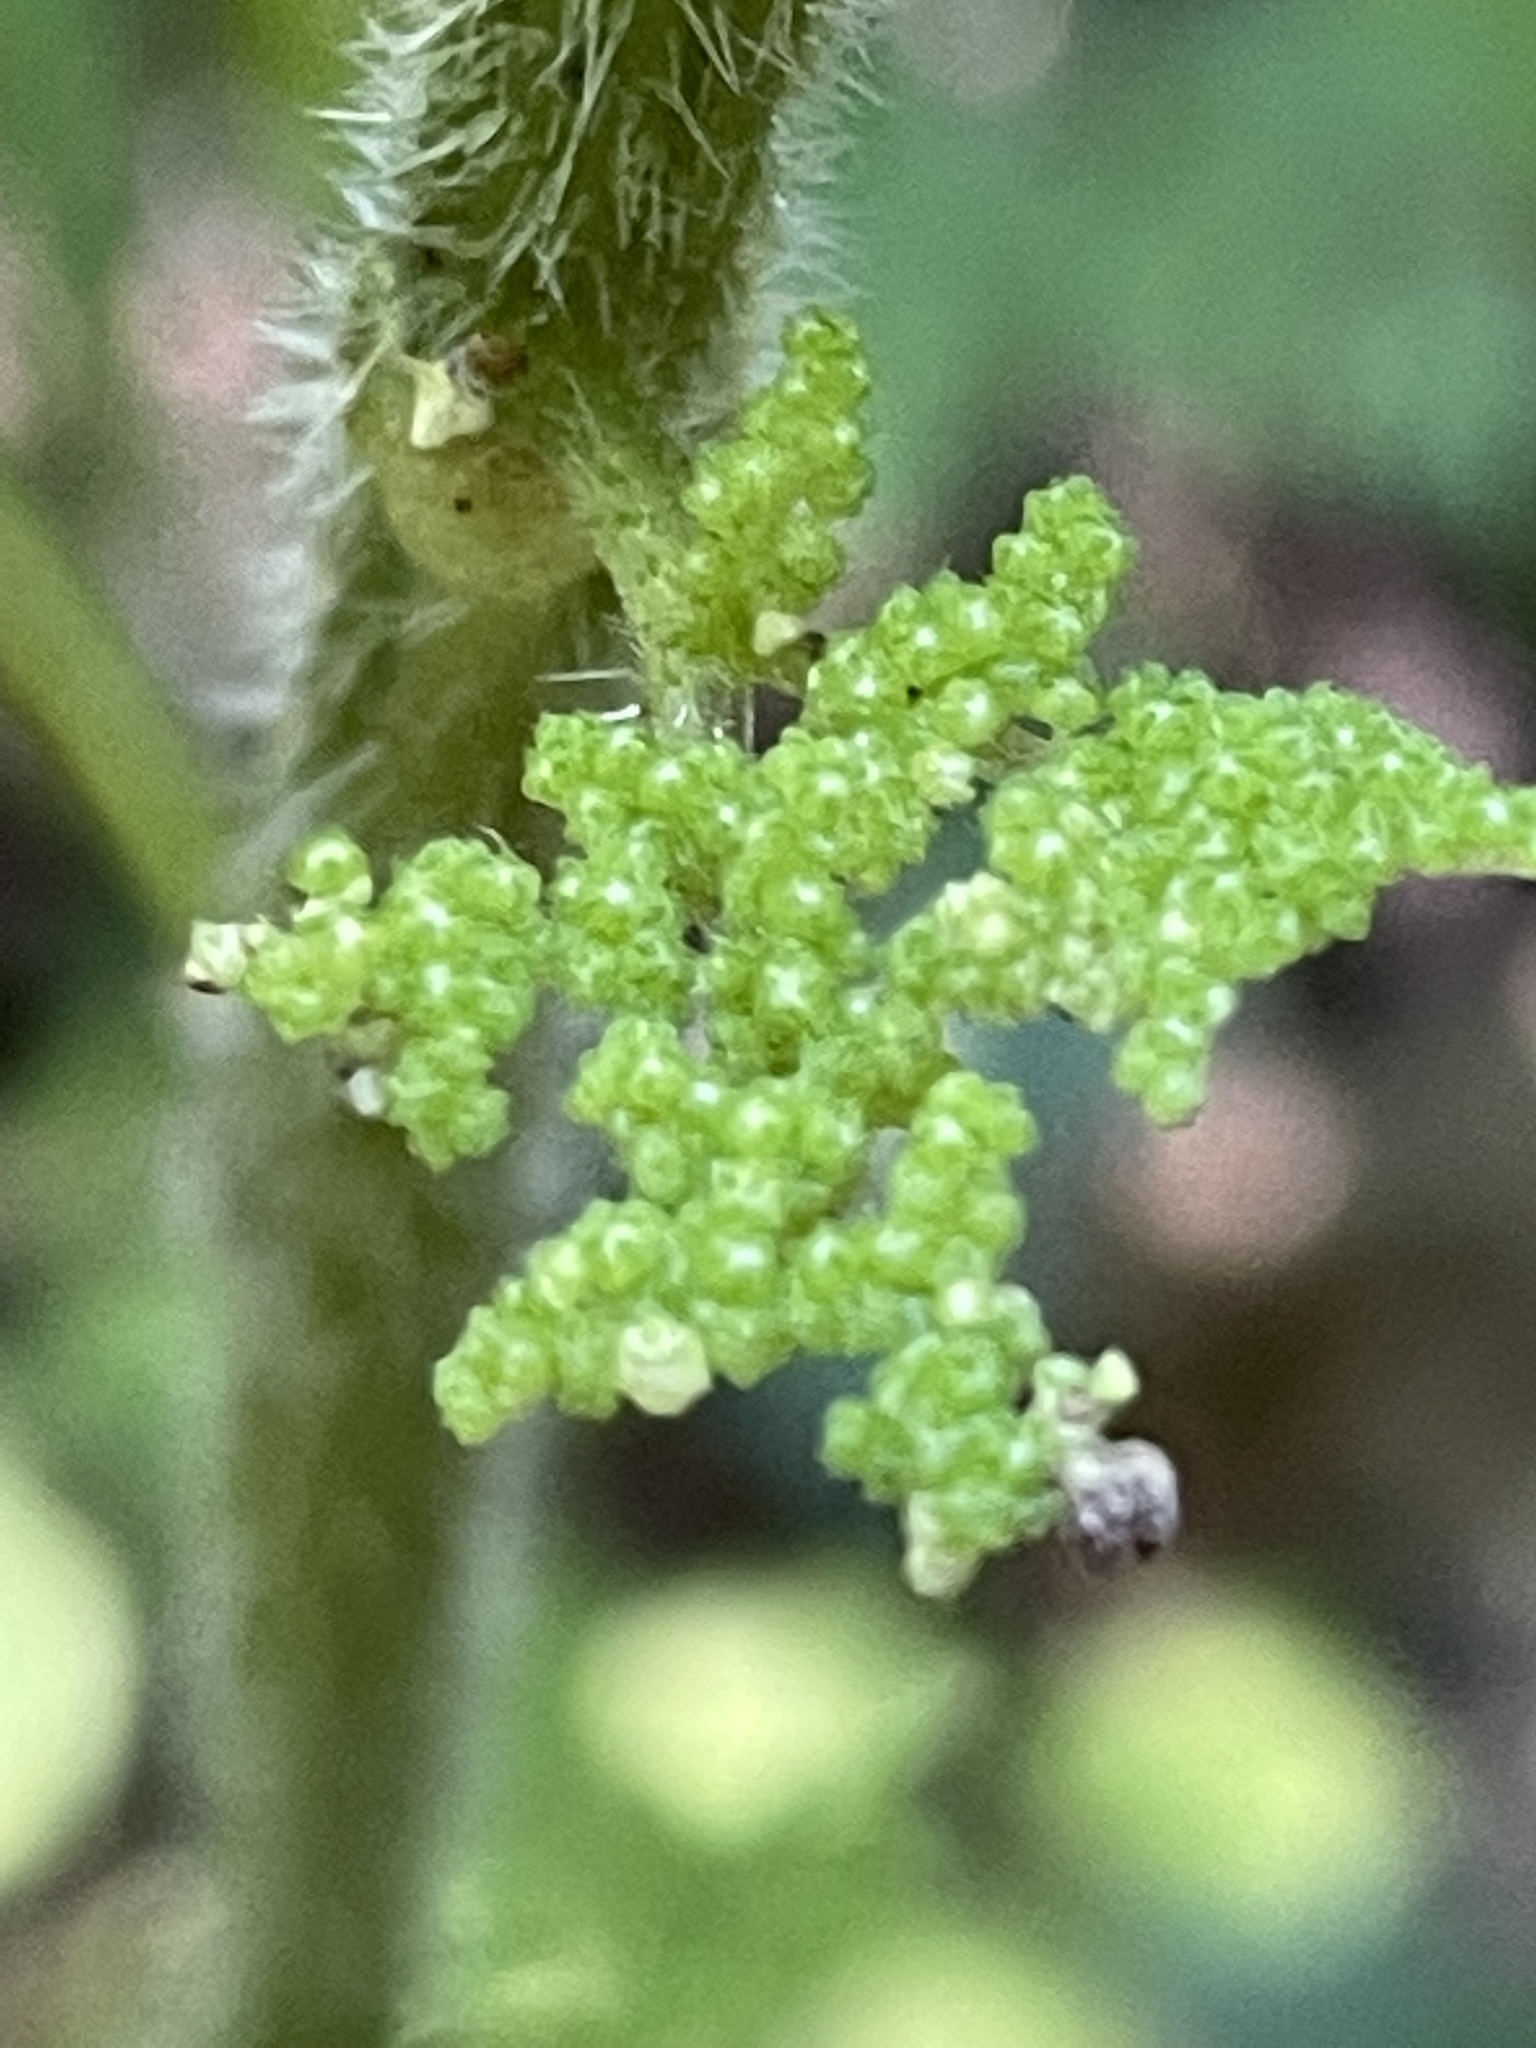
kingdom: Plantae
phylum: Tracheophyta
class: Magnoliopsida
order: Rosales
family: Urticaceae
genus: Laportea
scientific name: Laportea canadensis
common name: Canada nettle
